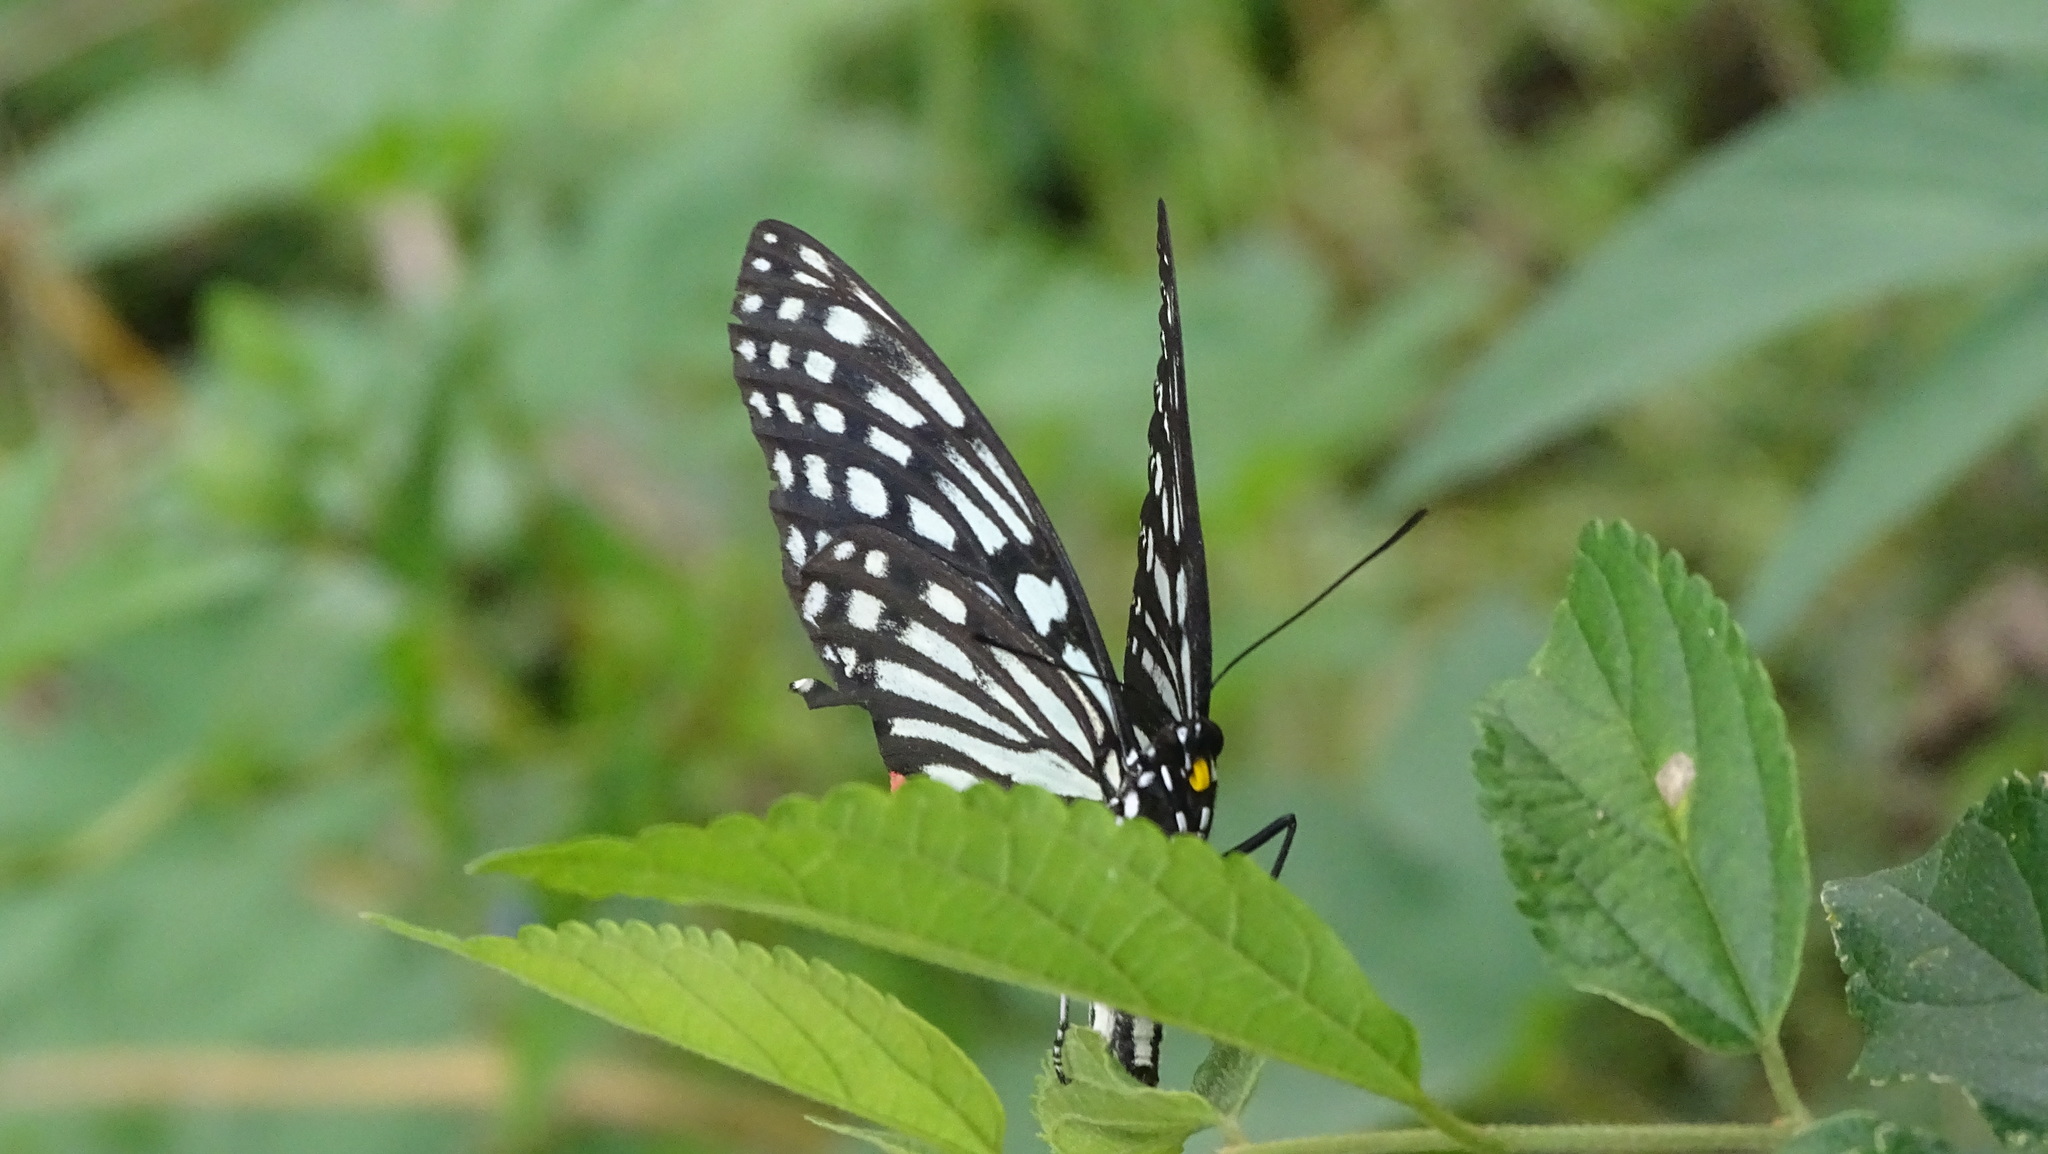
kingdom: Animalia
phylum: Arthropoda
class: Insecta
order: Lepidoptera
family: Nymphalidae
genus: Hestina
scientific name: Hestina assimilis
